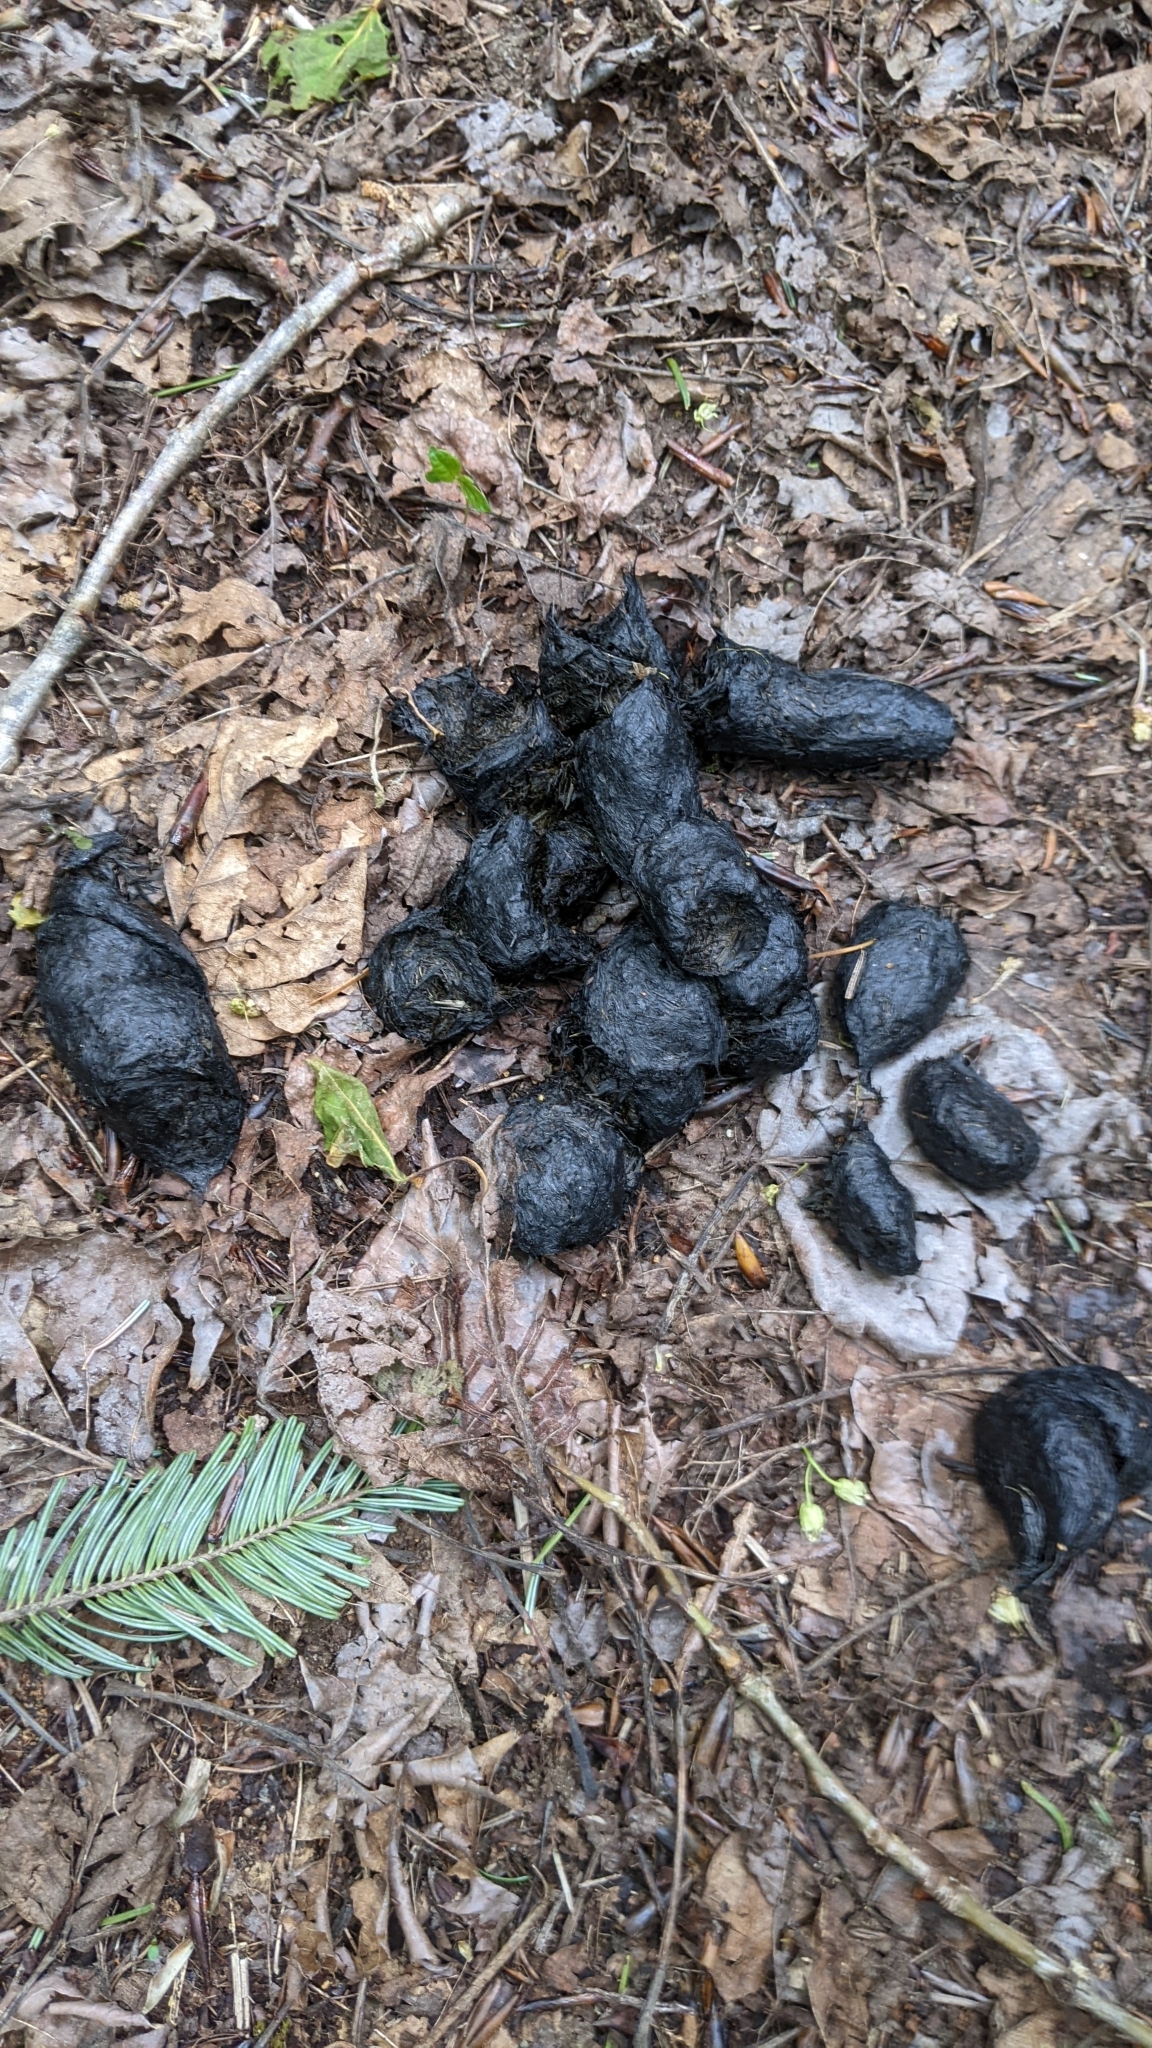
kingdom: Animalia
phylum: Chordata
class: Mammalia
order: Carnivora
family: Ursidae
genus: Ursus
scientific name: Ursus americanus
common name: American black bear
